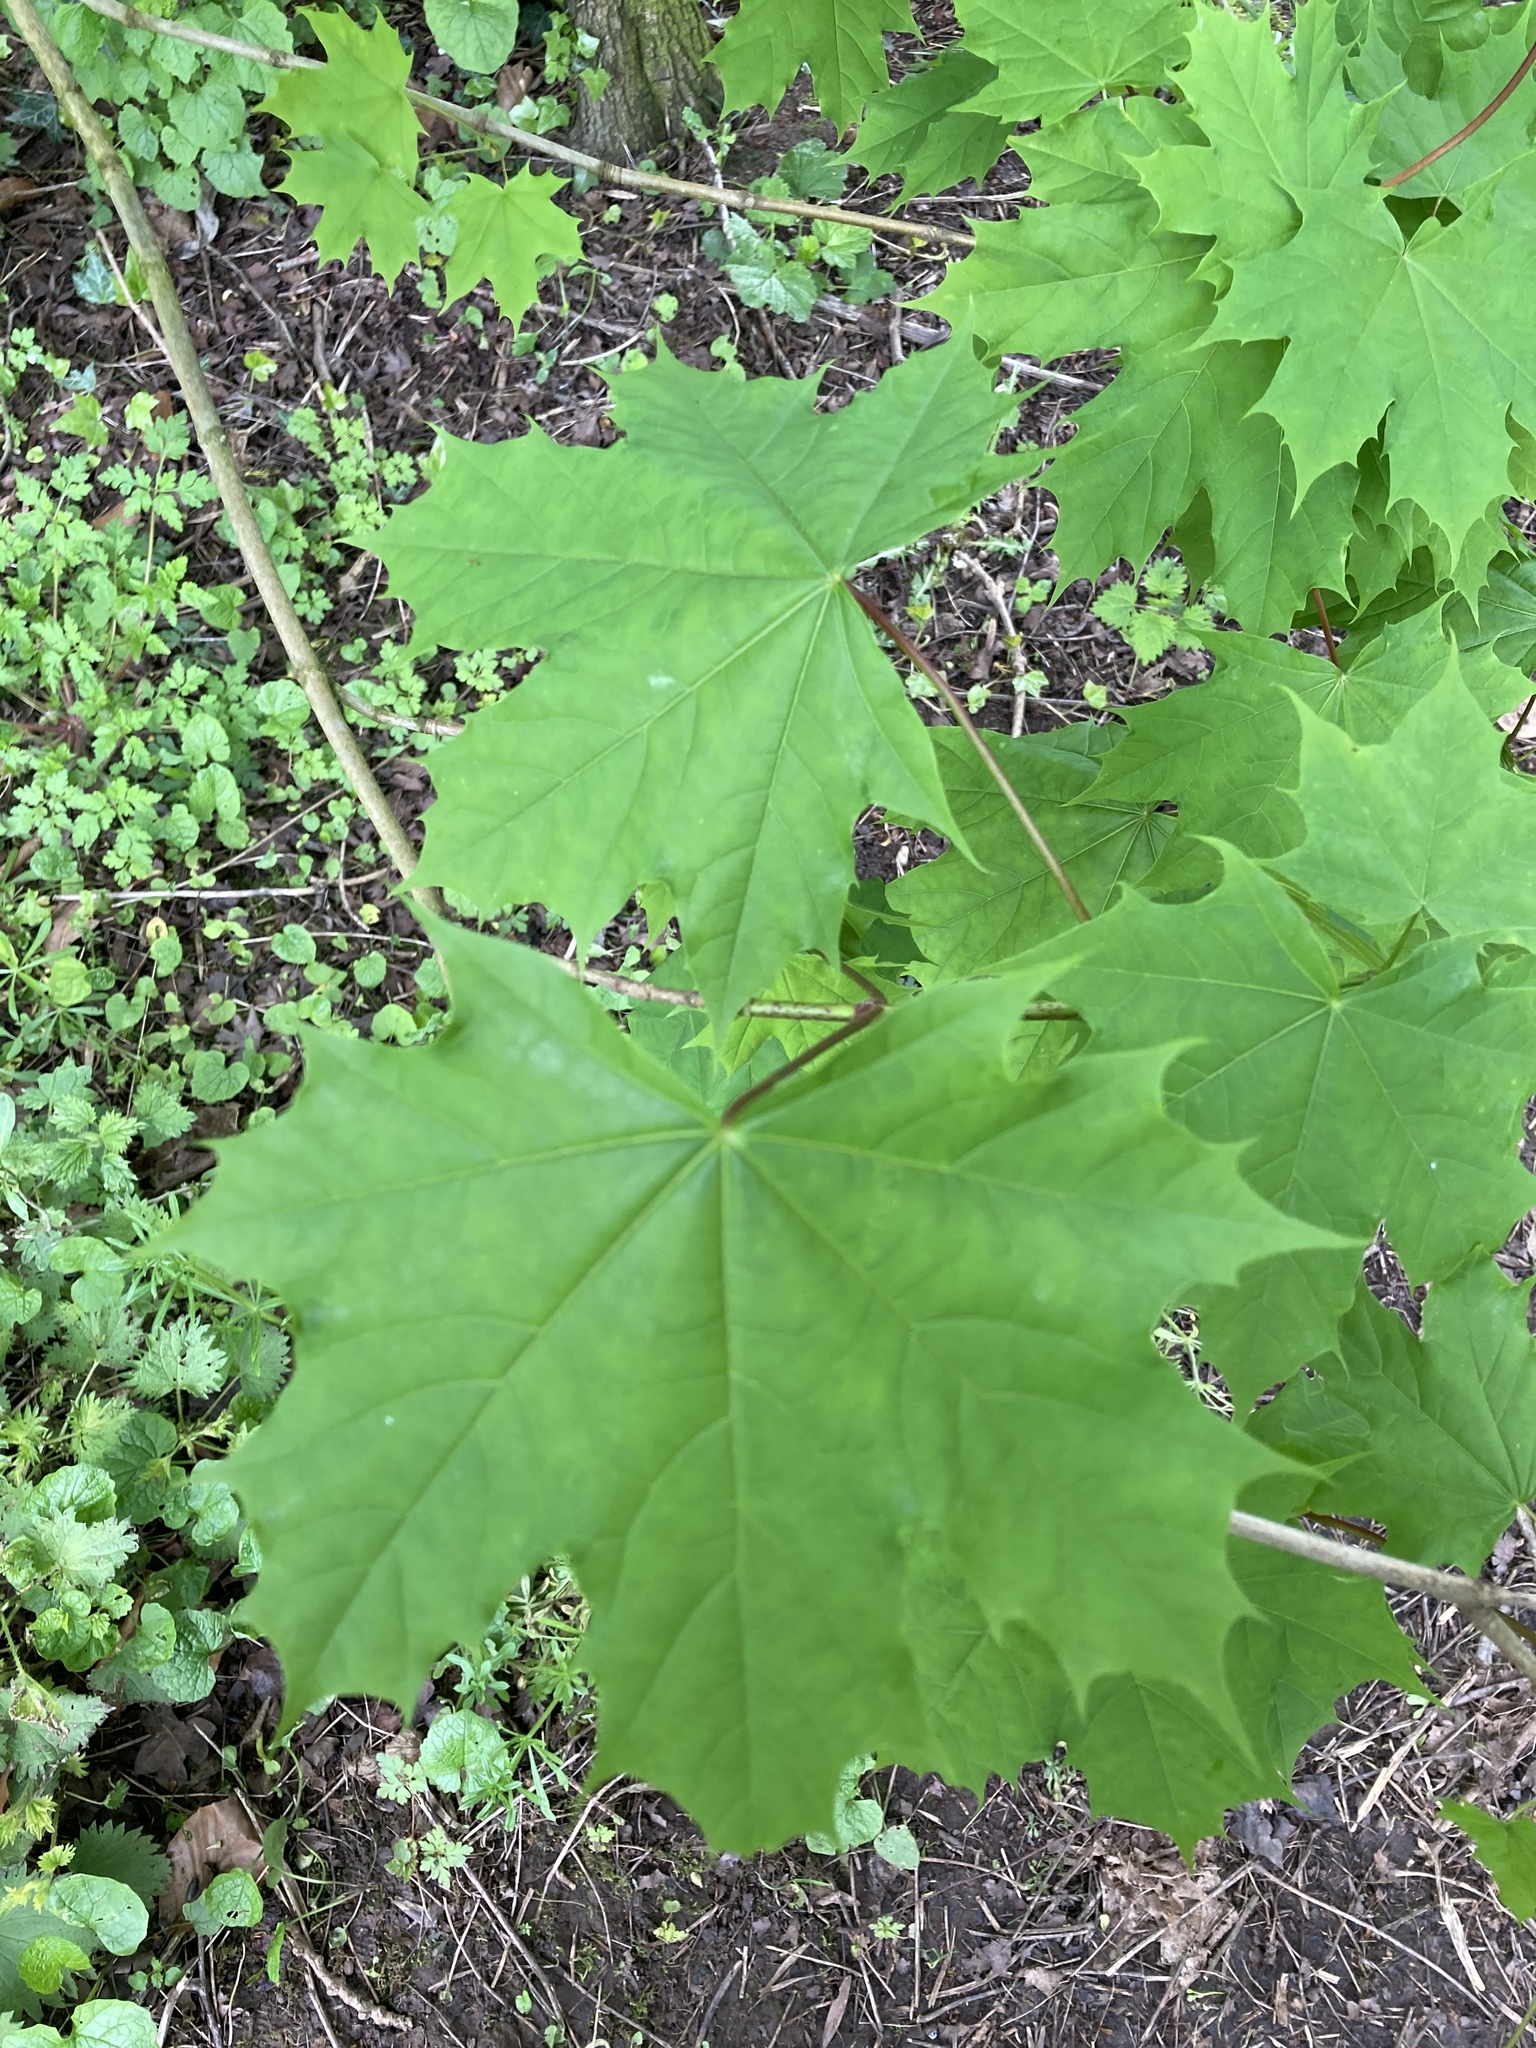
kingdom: Plantae
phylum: Tracheophyta
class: Magnoliopsida
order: Sapindales
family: Sapindaceae
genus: Acer
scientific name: Acer platanoides
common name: Norway maple
